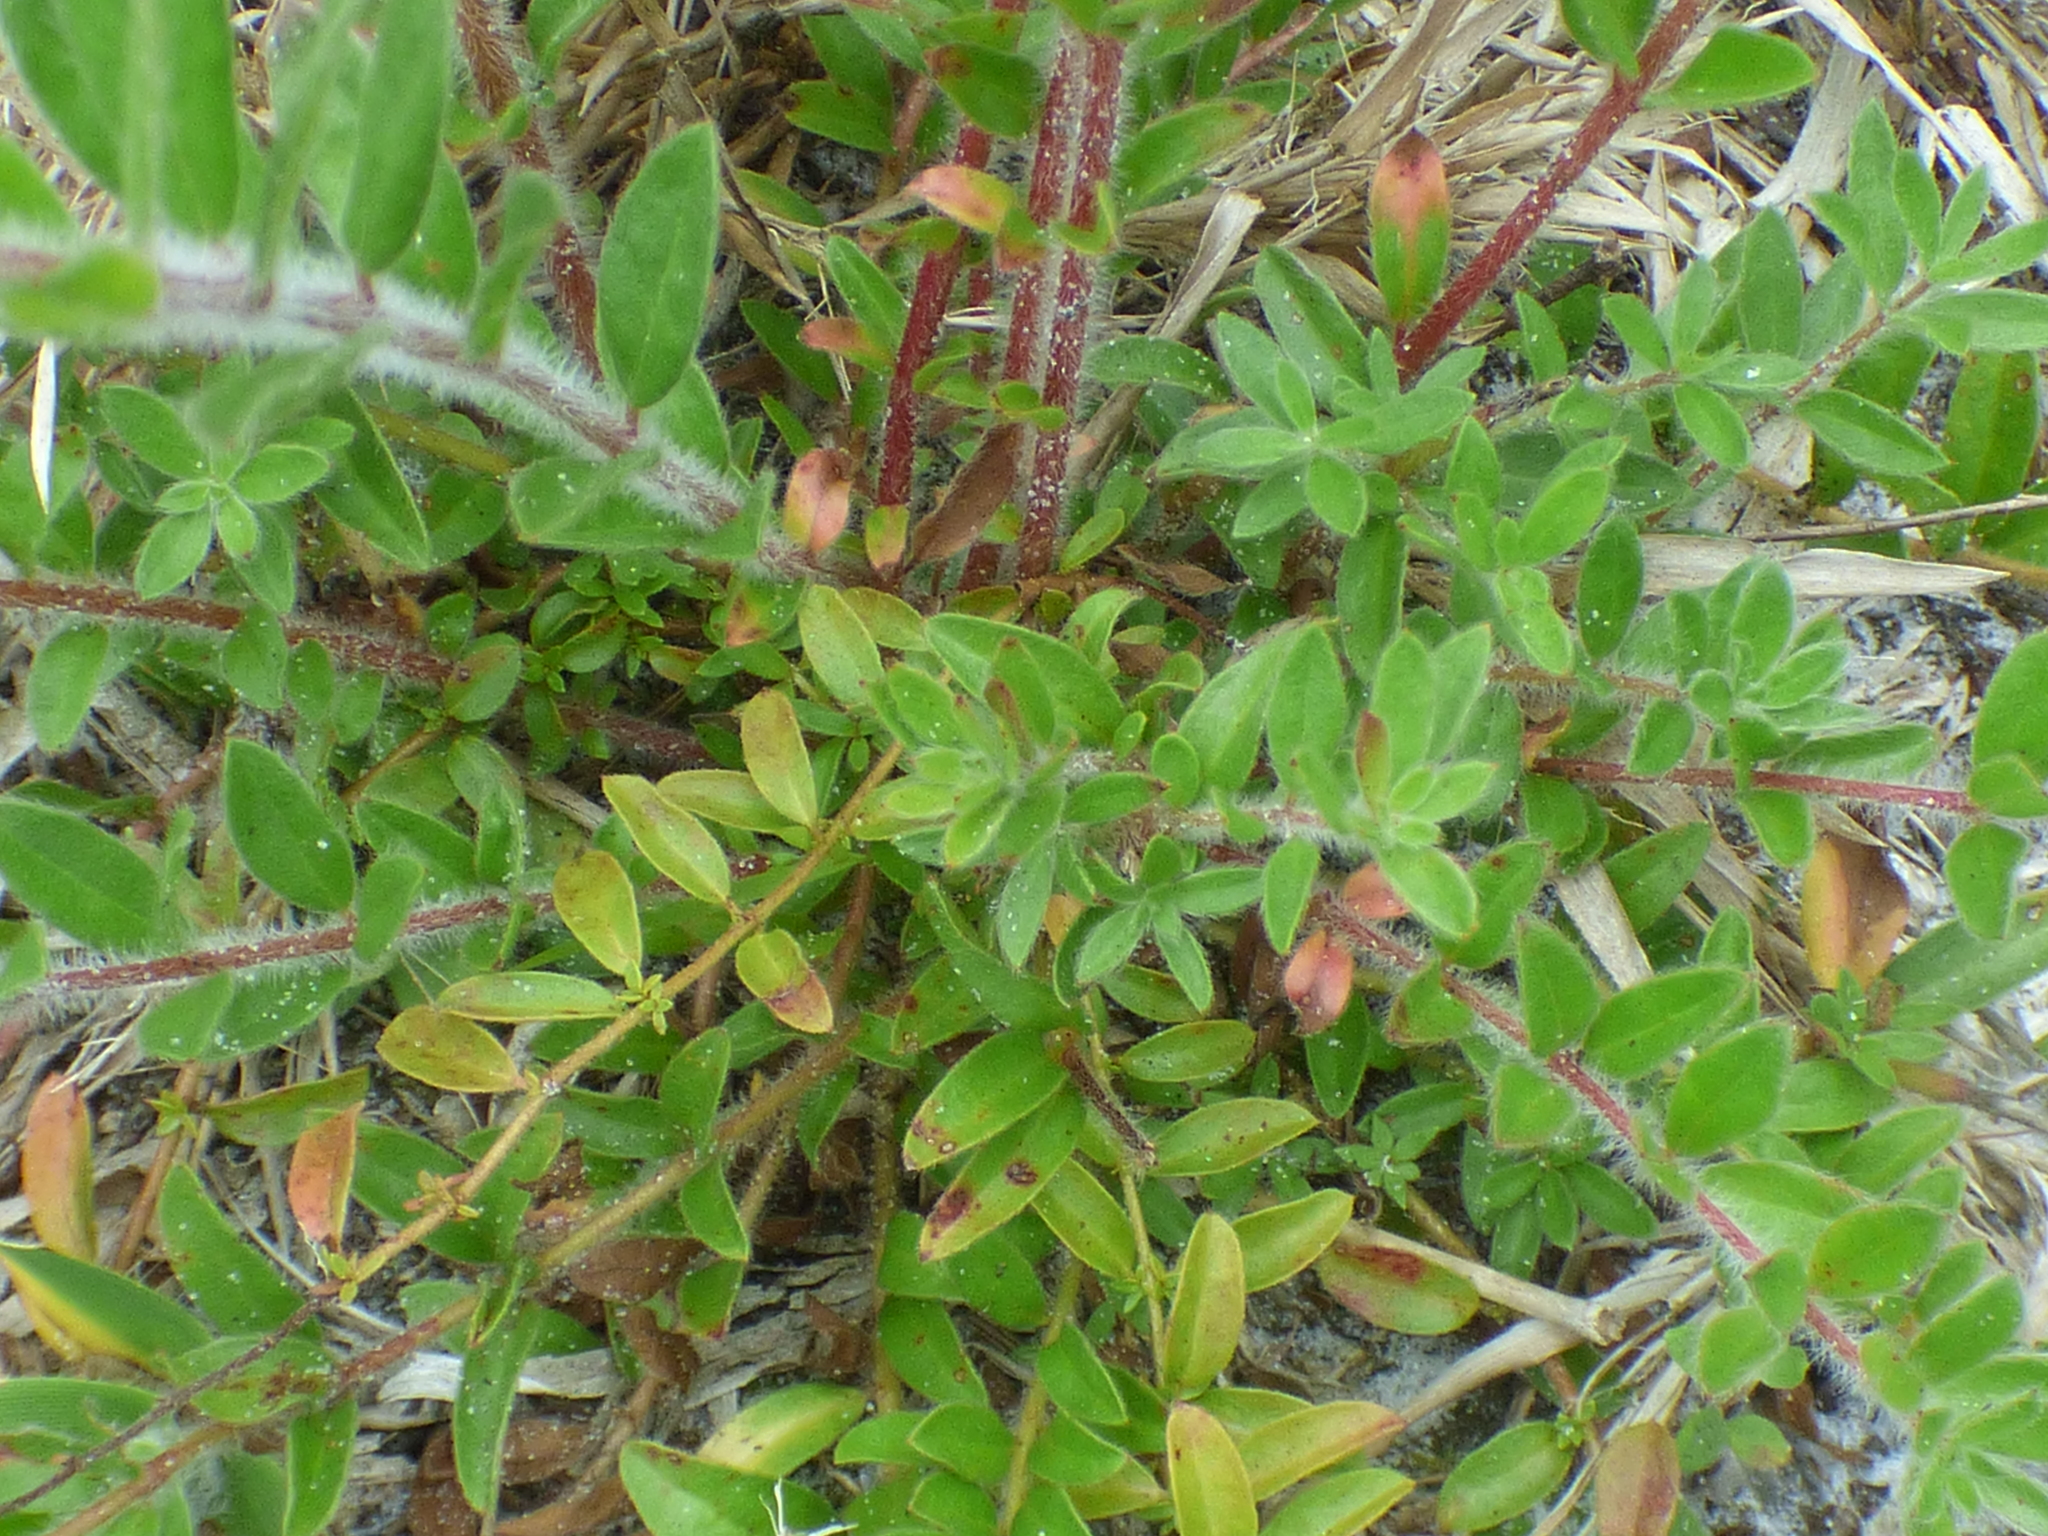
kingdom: Plantae
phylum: Tracheophyta
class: Magnoliopsida
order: Malvales
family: Cistaceae
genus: Lechea
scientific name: Lechea mucronata
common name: Hairy pinweed
